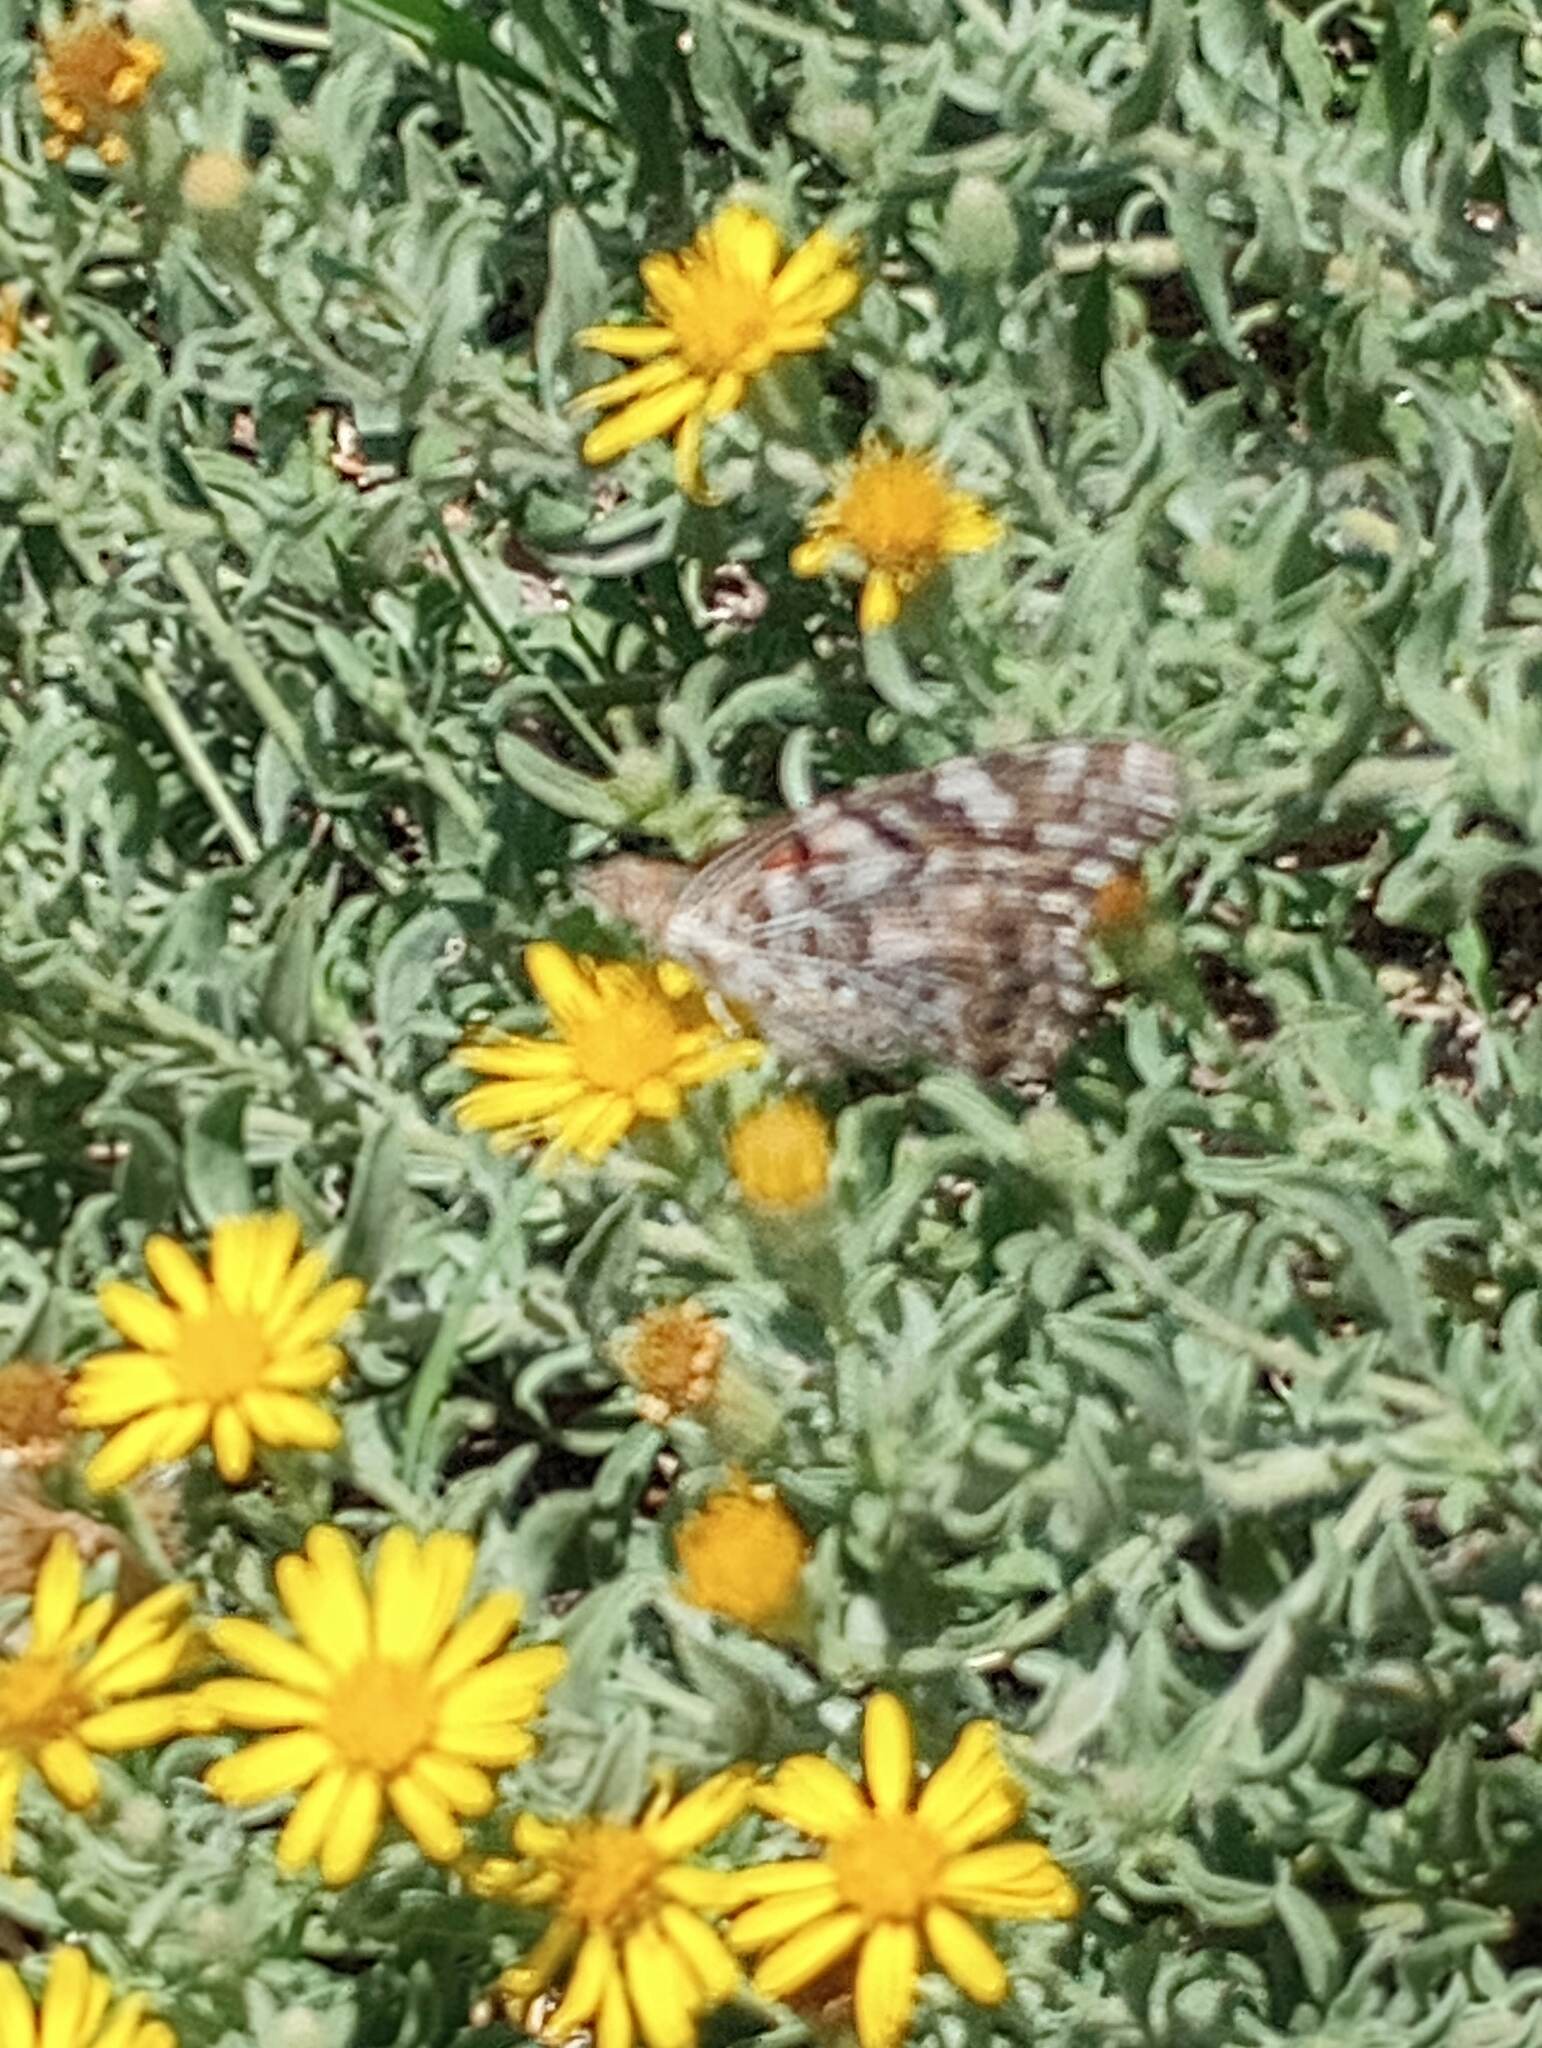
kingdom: Animalia
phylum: Arthropoda
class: Insecta
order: Lepidoptera
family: Nymphalidae
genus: Vanessa
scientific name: Vanessa cardui
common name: Painted lady
